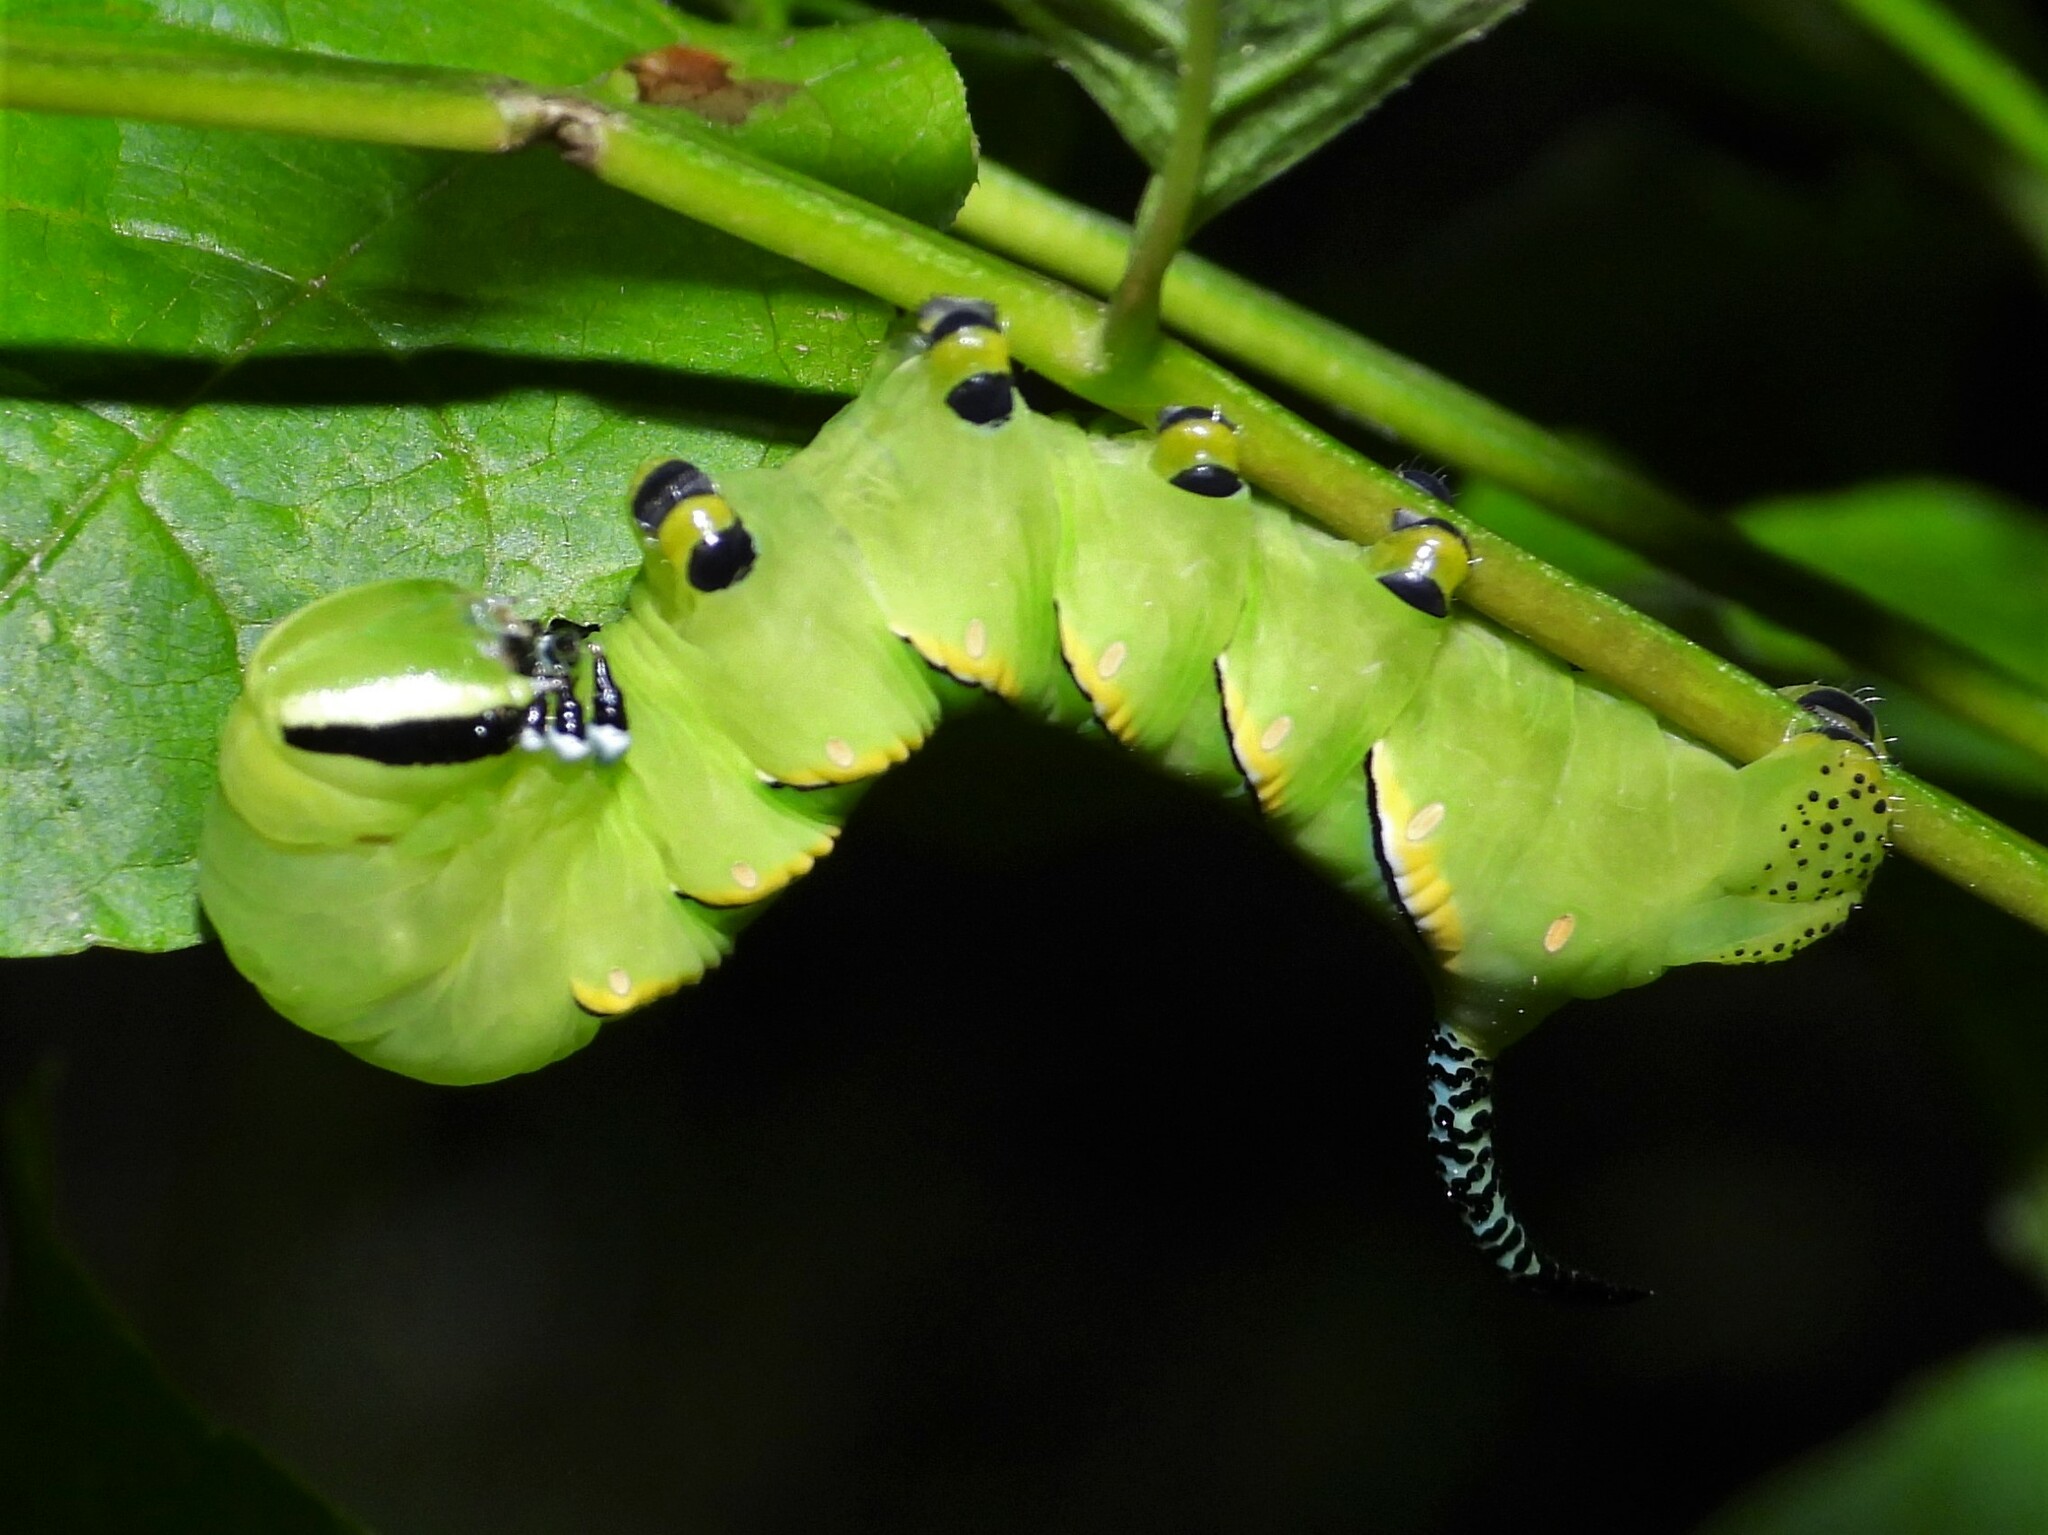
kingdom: Animalia
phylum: Arthropoda
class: Insecta
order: Lepidoptera
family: Sphingidae
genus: Sphinx
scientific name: Sphinx kalmiae
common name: Laurel sphinx
